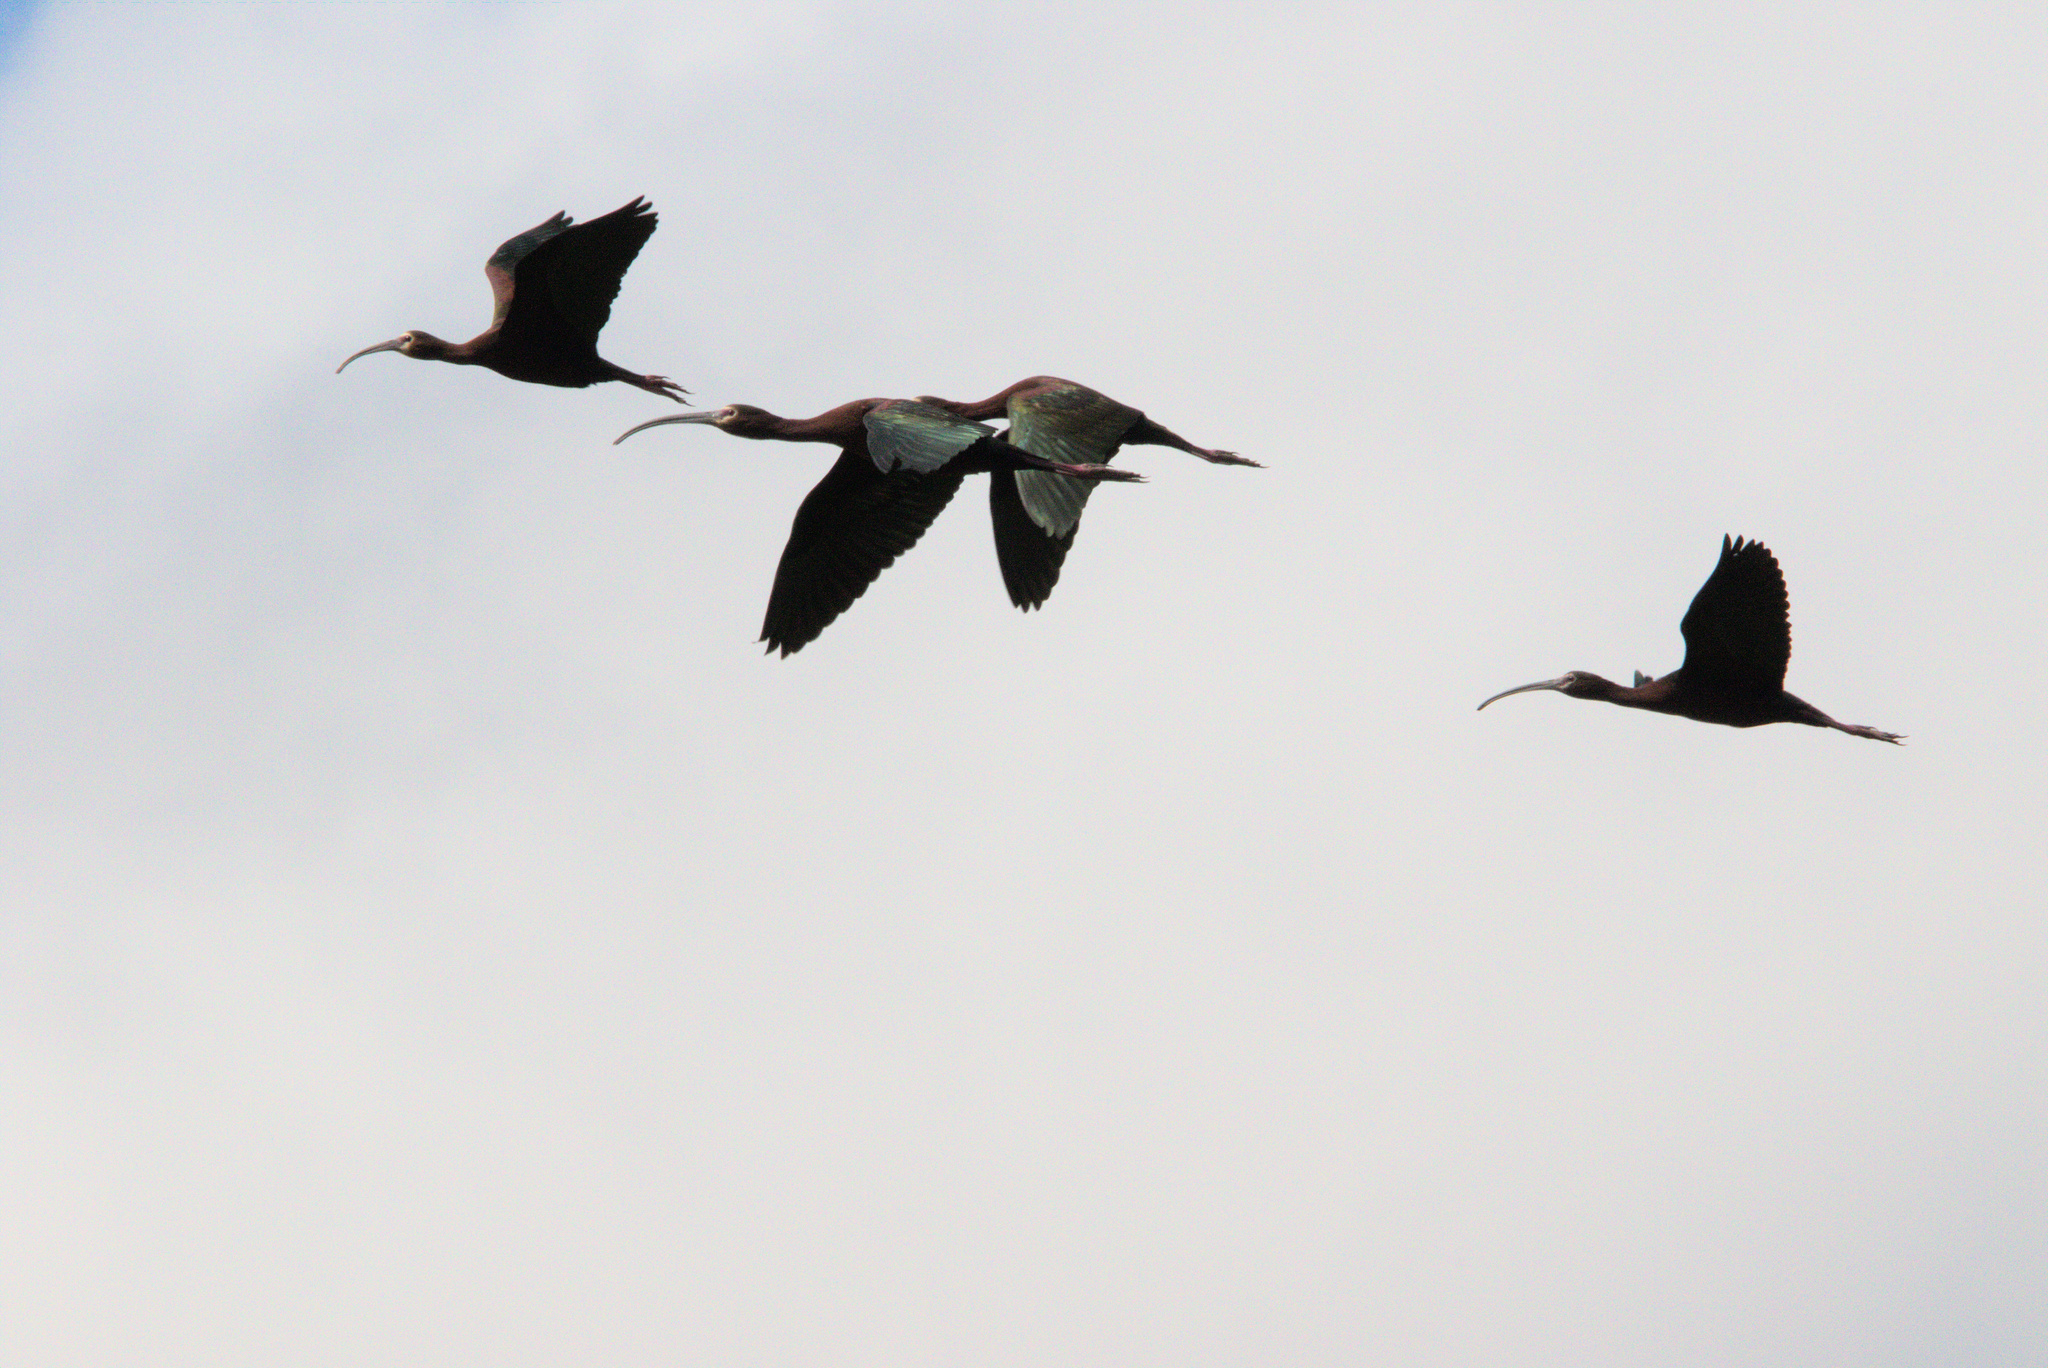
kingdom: Animalia
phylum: Chordata
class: Aves
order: Pelecaniformes
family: Threskiornithidae
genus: Plegadis
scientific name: Plegadis chihi
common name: White-faced ibis
